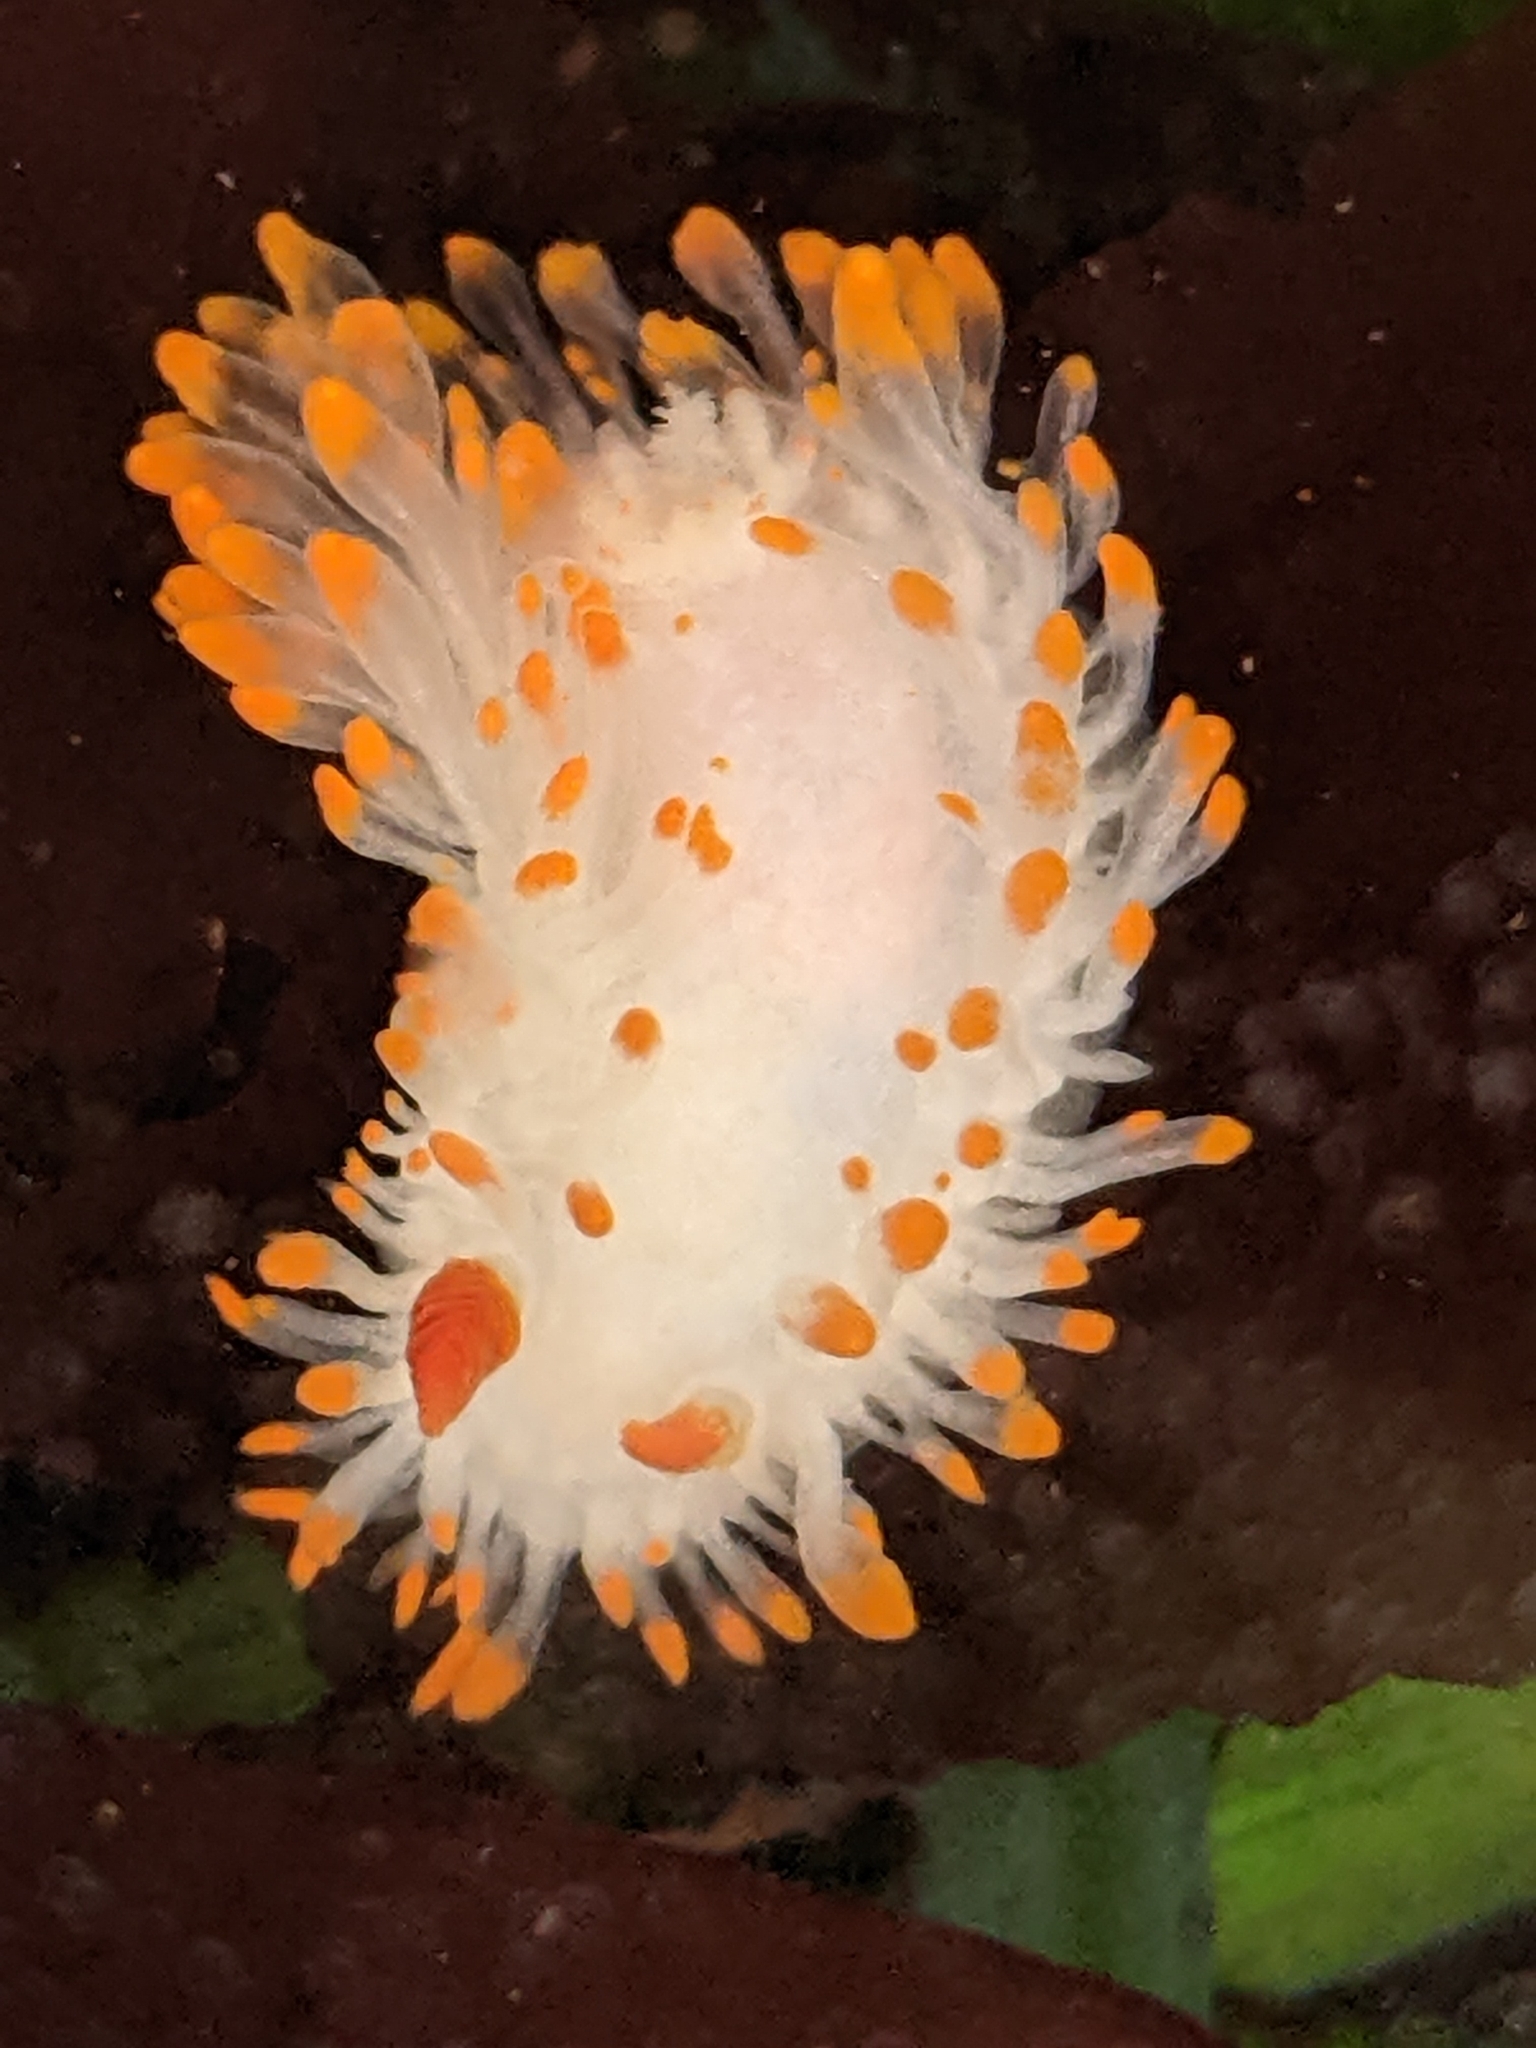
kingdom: Animalia
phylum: Mollusca
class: Gastropoda
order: Nudibranchia
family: Polyceridae
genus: Limacia
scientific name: Limacia cockerelli
